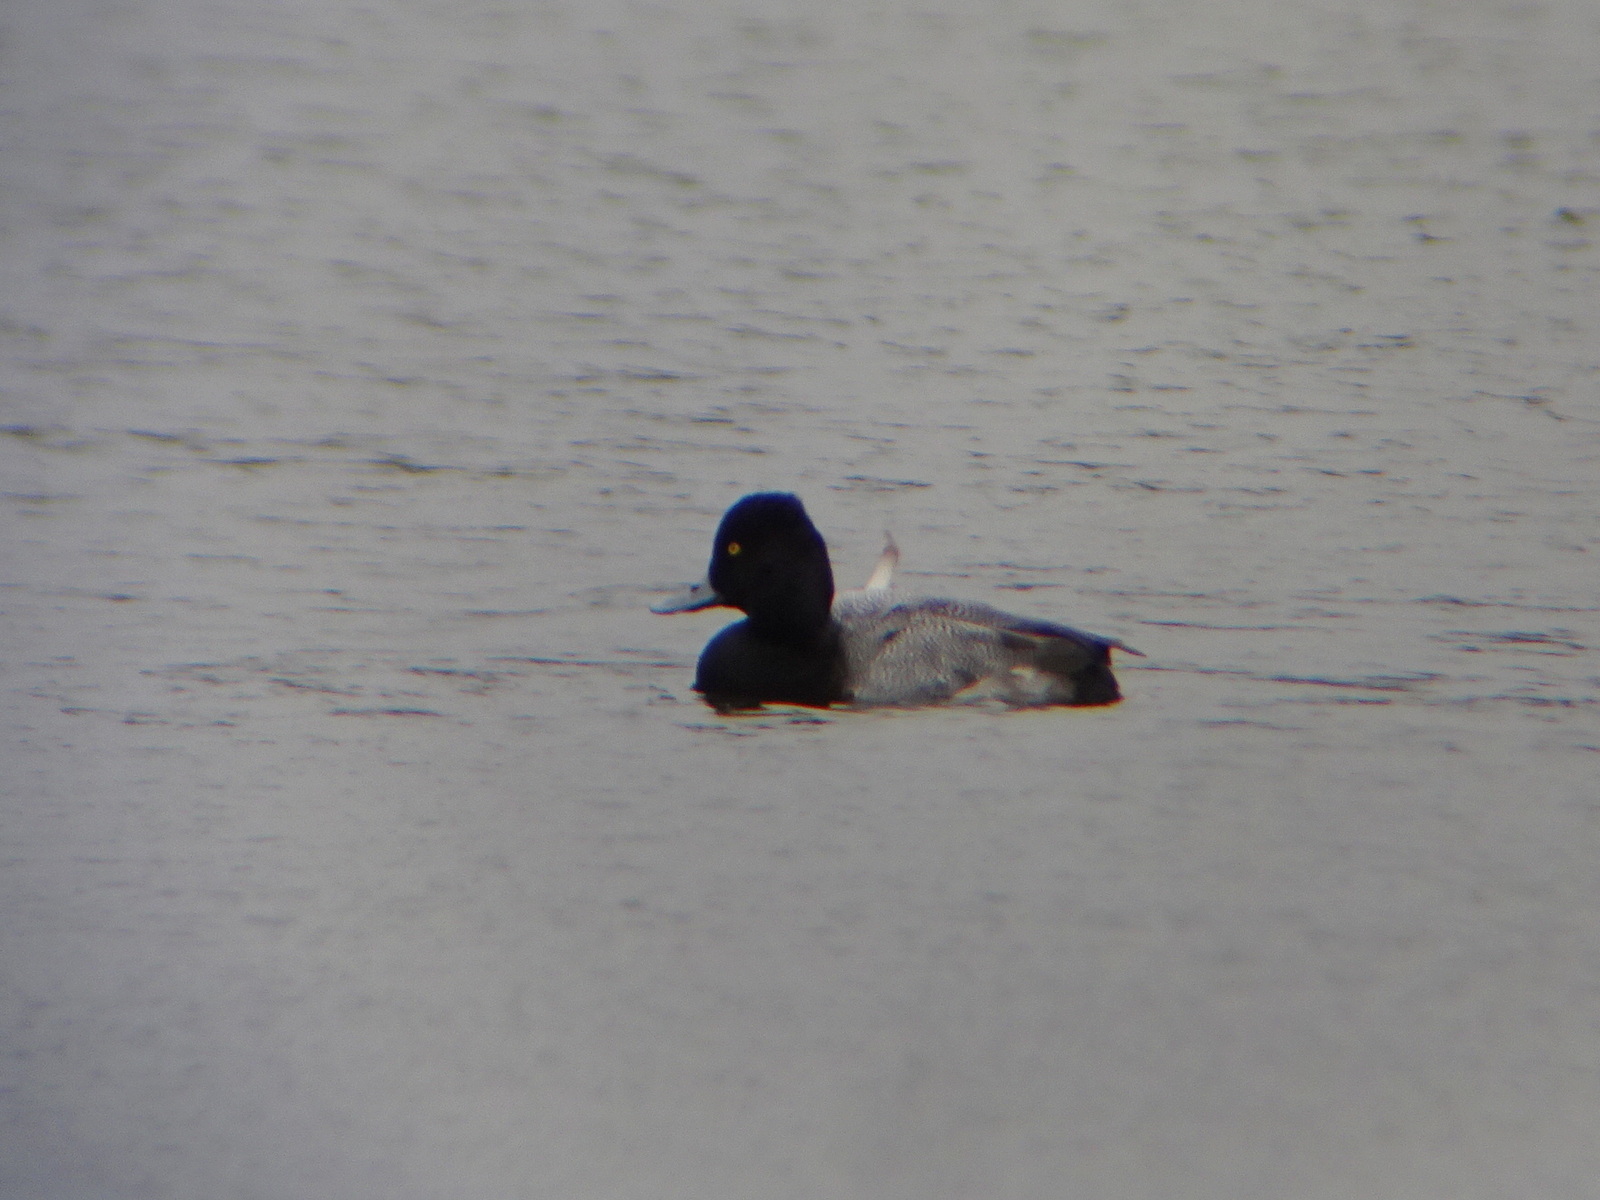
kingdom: Animalia
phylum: Chordata
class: Aves
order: Anseriformes
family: Anatidae
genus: Aythya
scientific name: Aythya affinis
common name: Lesser scaup
